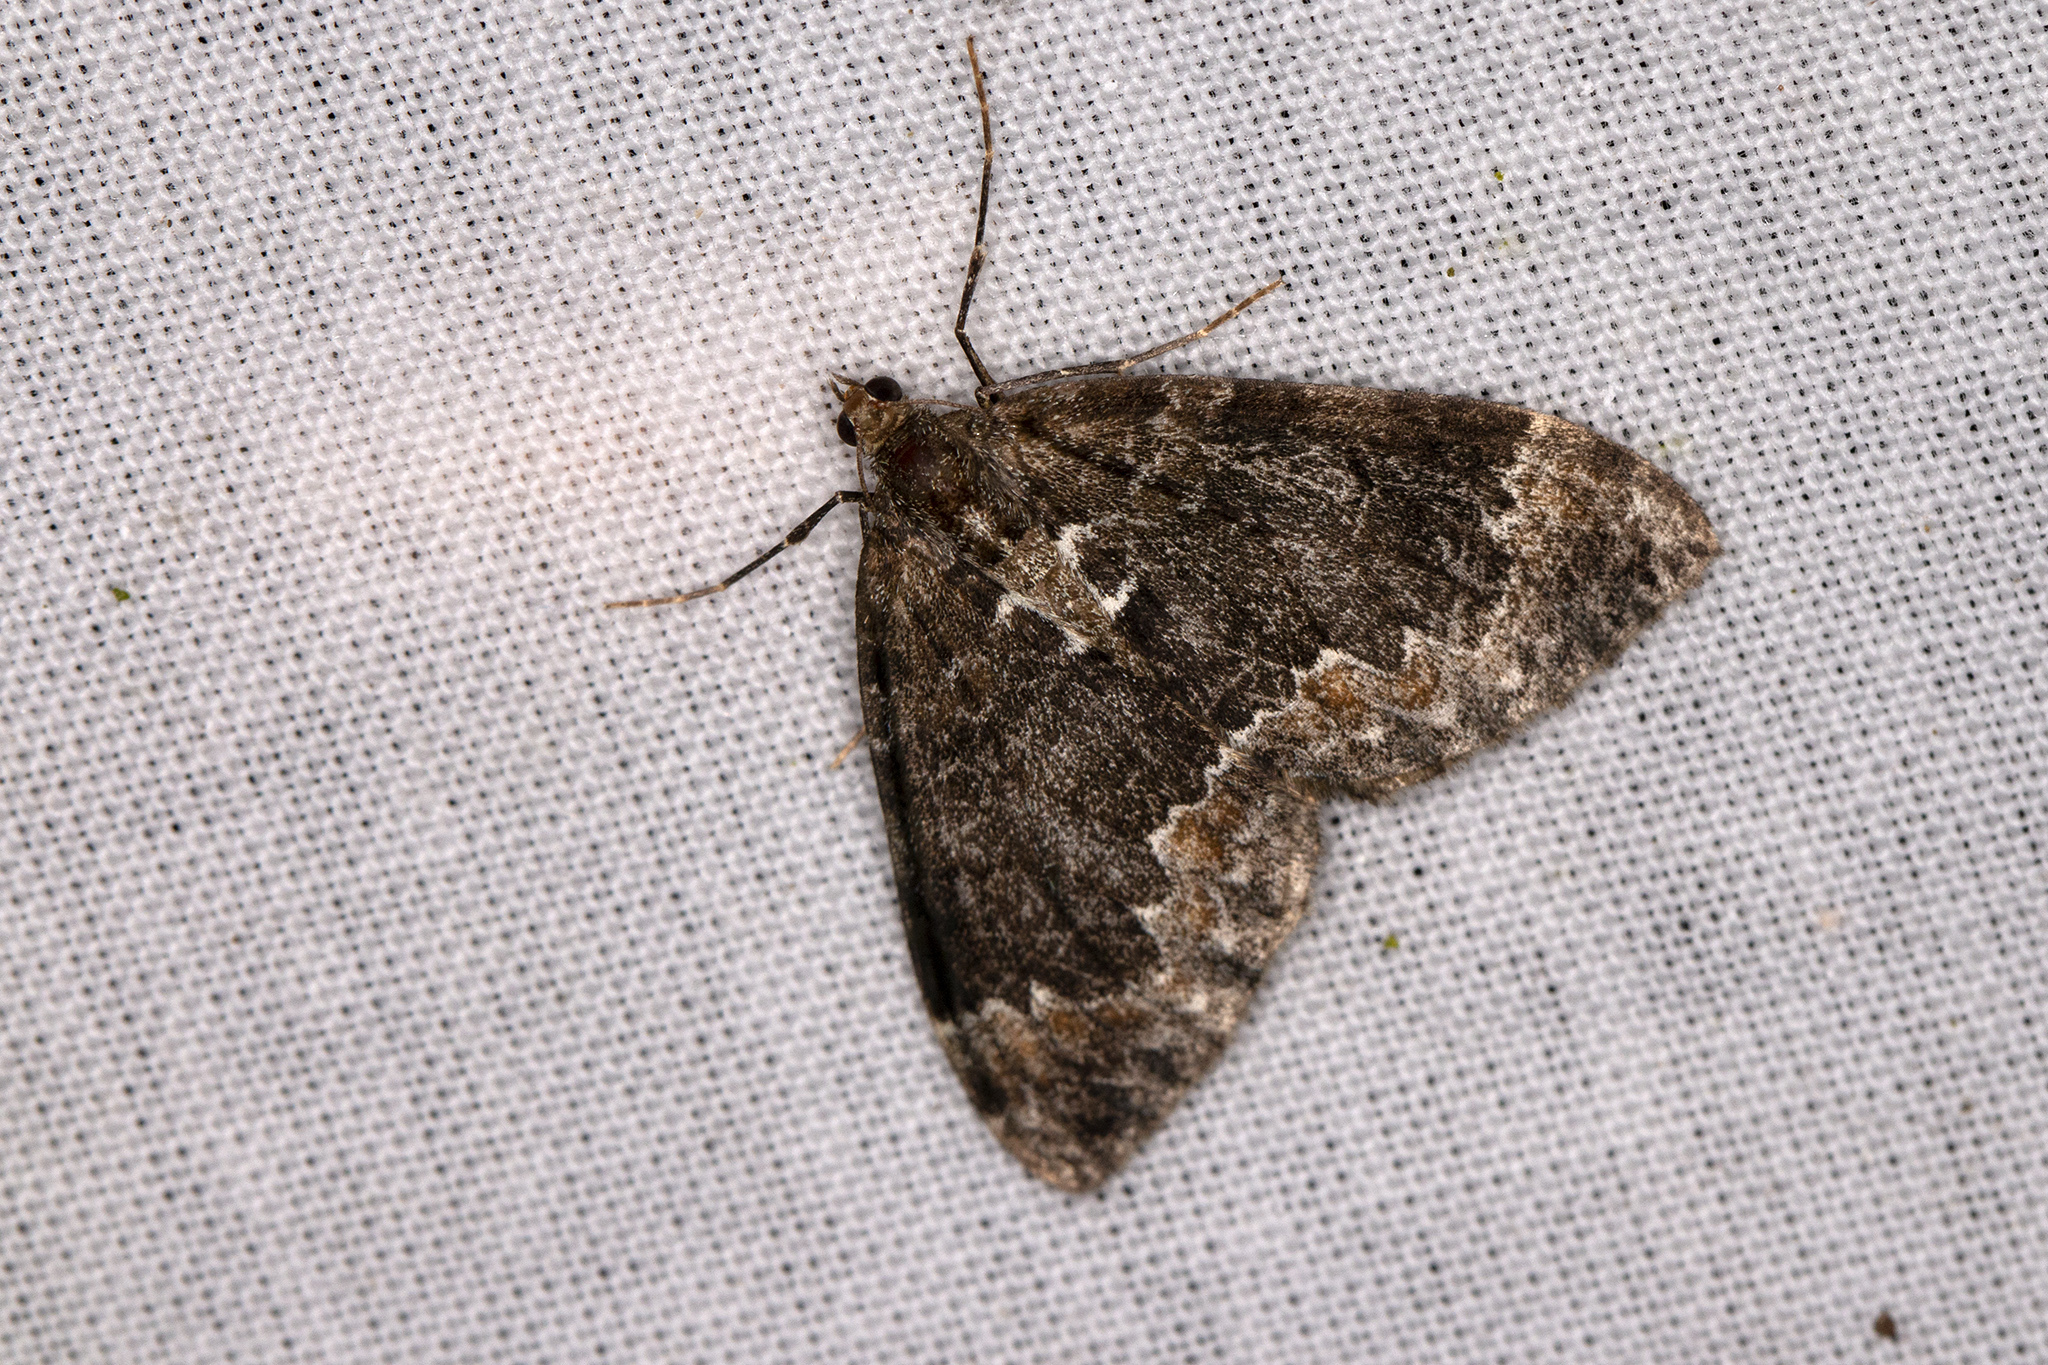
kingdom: Animalia
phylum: Arthropoda
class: Insecta
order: Lepidoptera
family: Geometridae
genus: Dysstroma
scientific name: Dysstroma truncata
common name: Common marbled carpet
